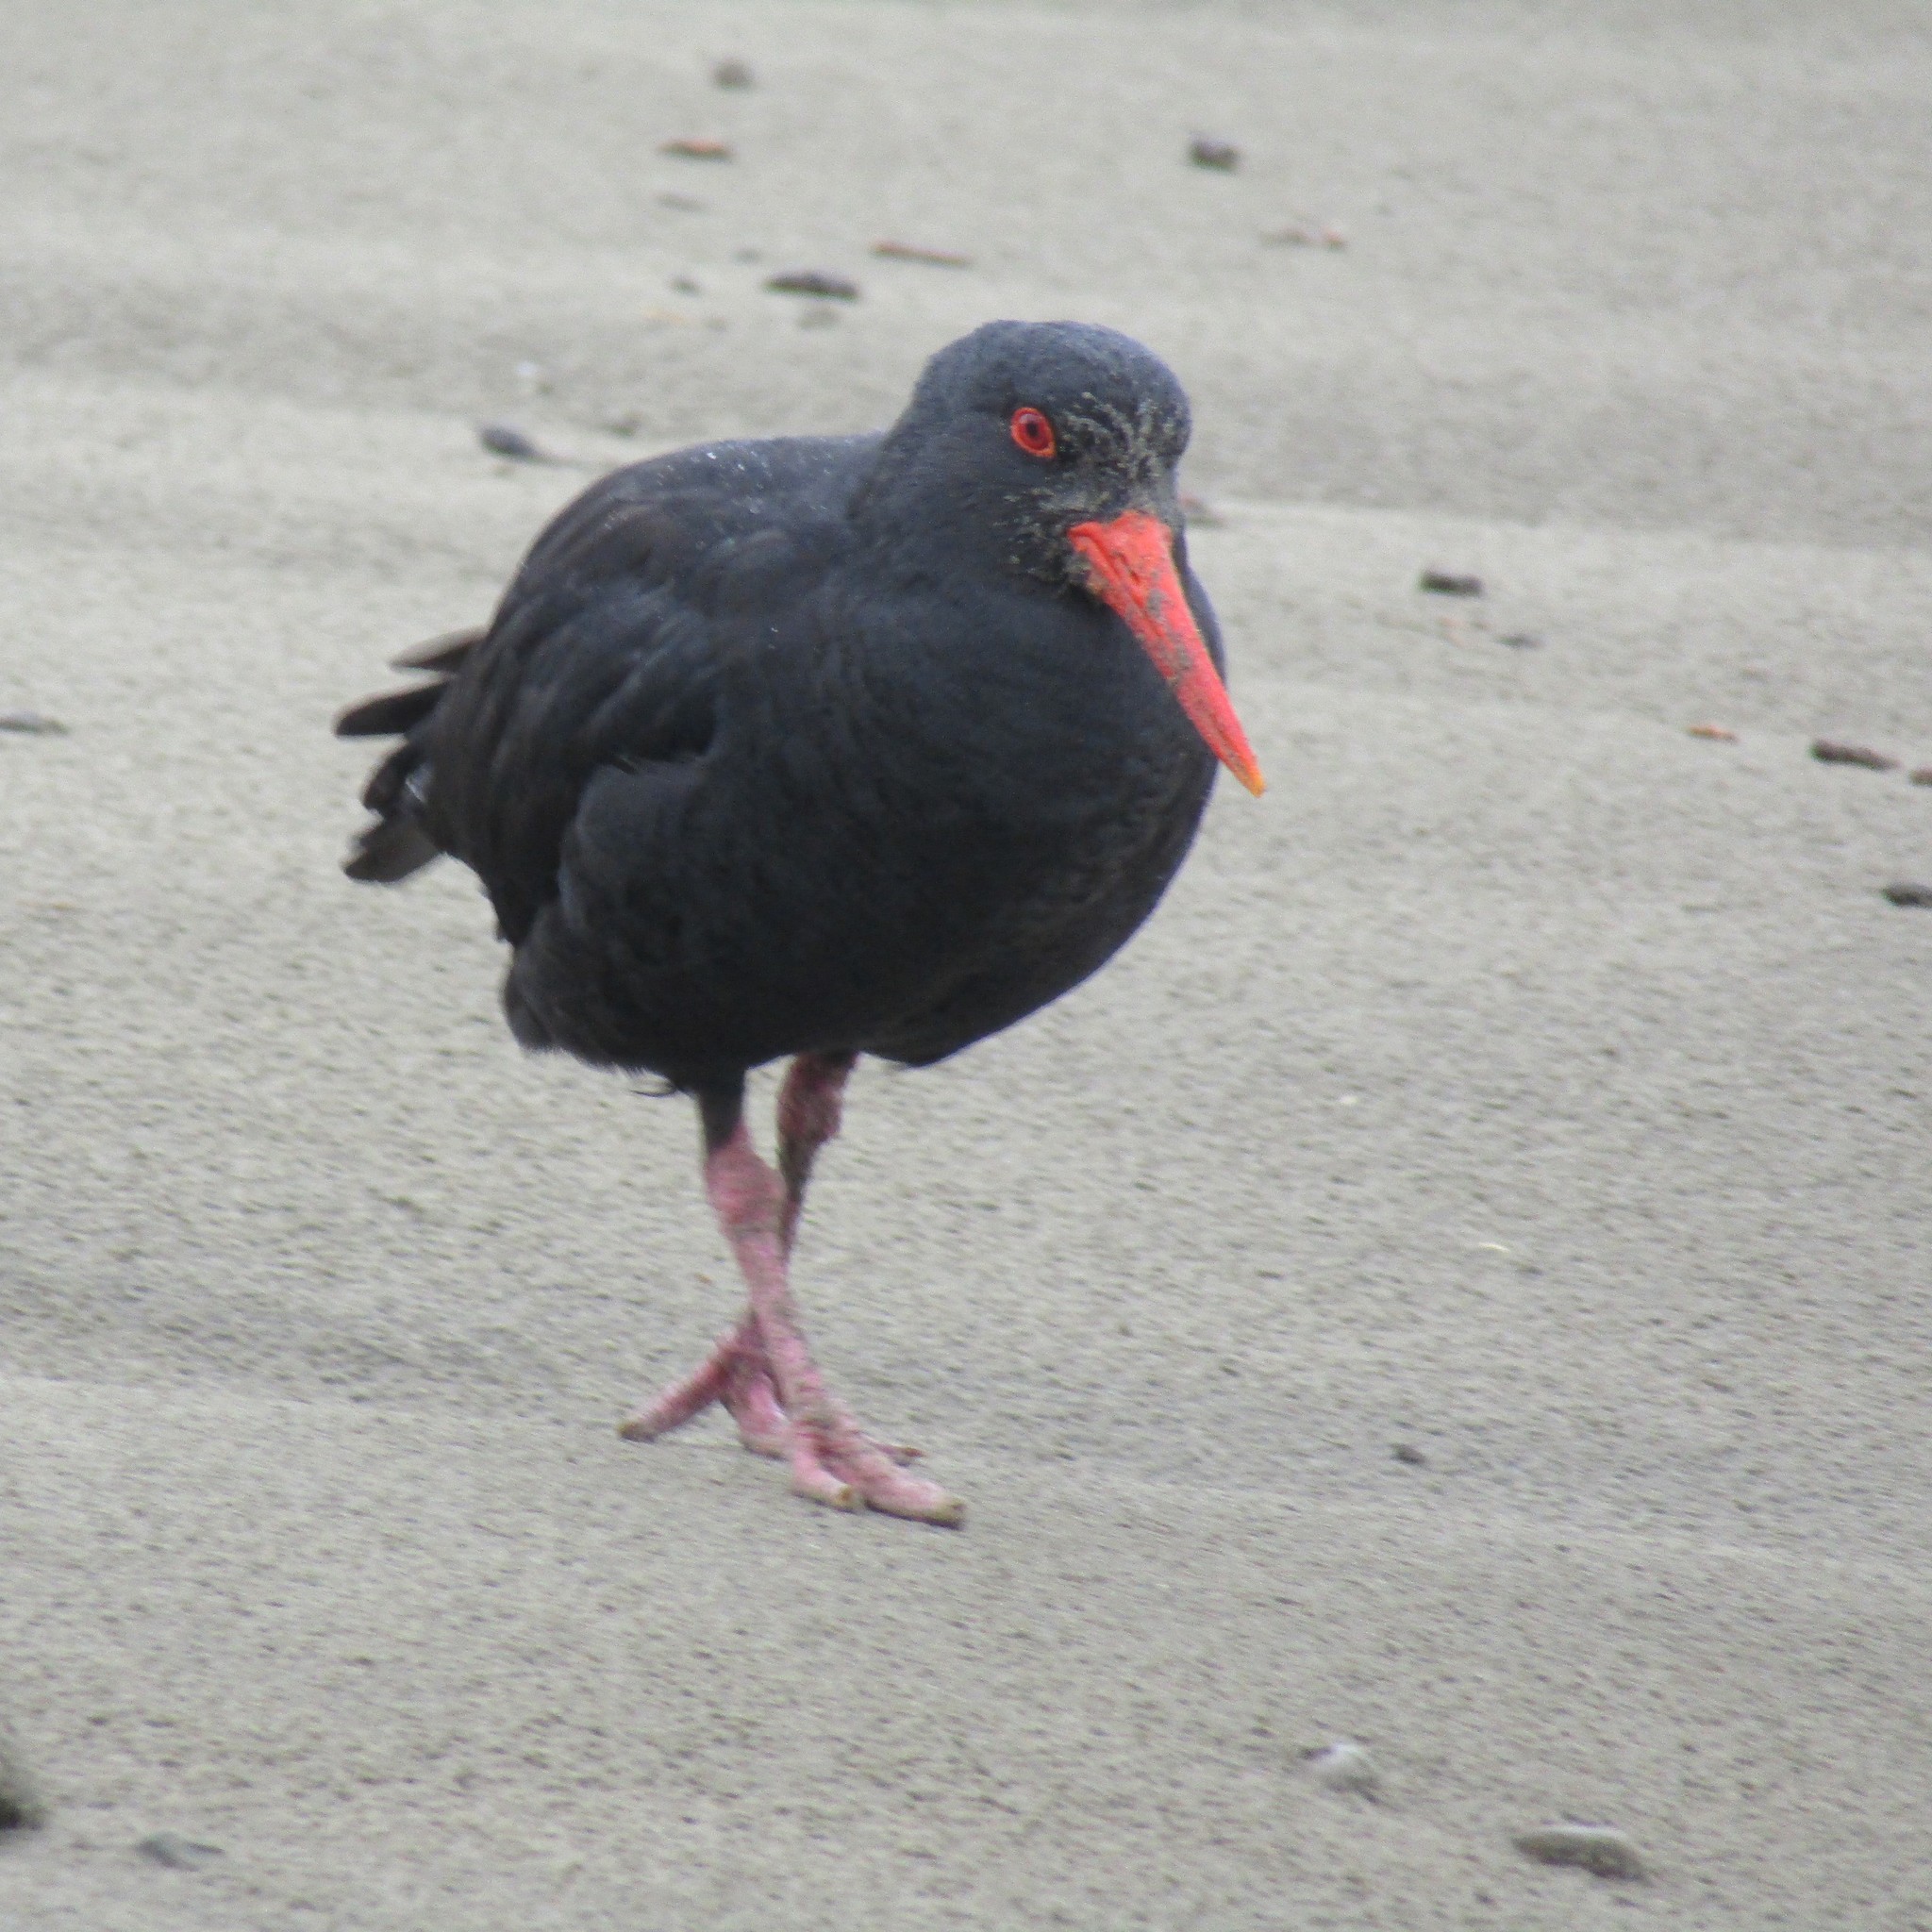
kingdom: Animalia
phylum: Chordata
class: Aves
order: Charadriiformes
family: Haematopodidae
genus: Haematopus
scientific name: Haematopus unicolor
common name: Variable oystercatcher
